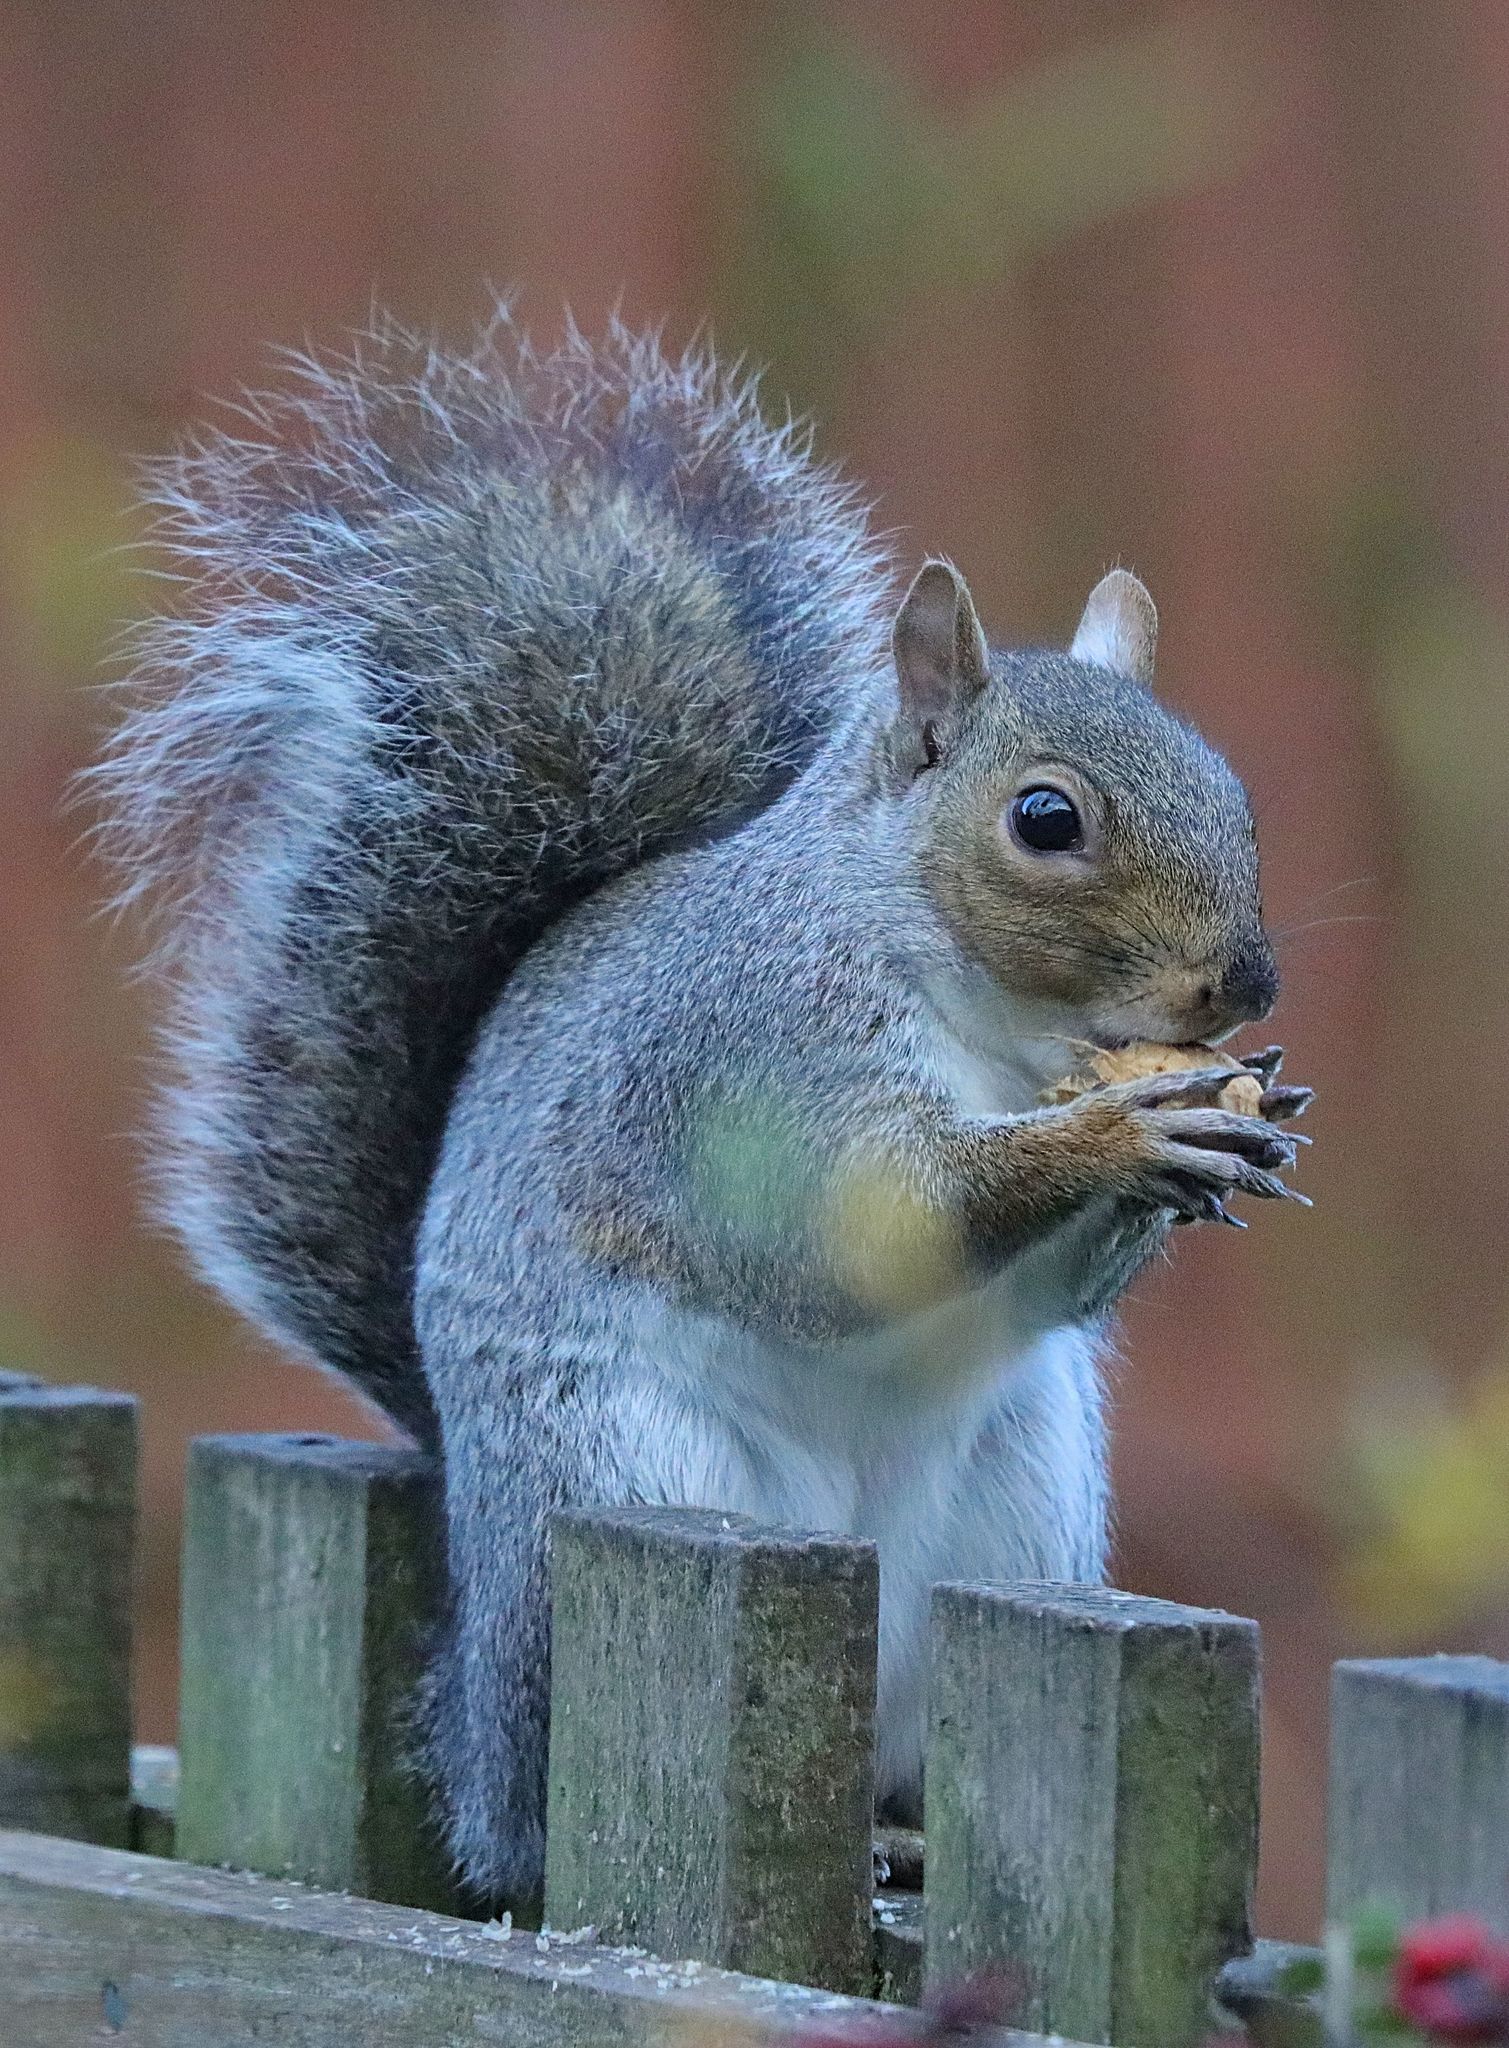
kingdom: Animalia
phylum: Chordata
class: Mammalia
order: Rodentia
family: Sciuridae
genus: Sciurus
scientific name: Sciurus carolinensis
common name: Eastern gray squirrel
